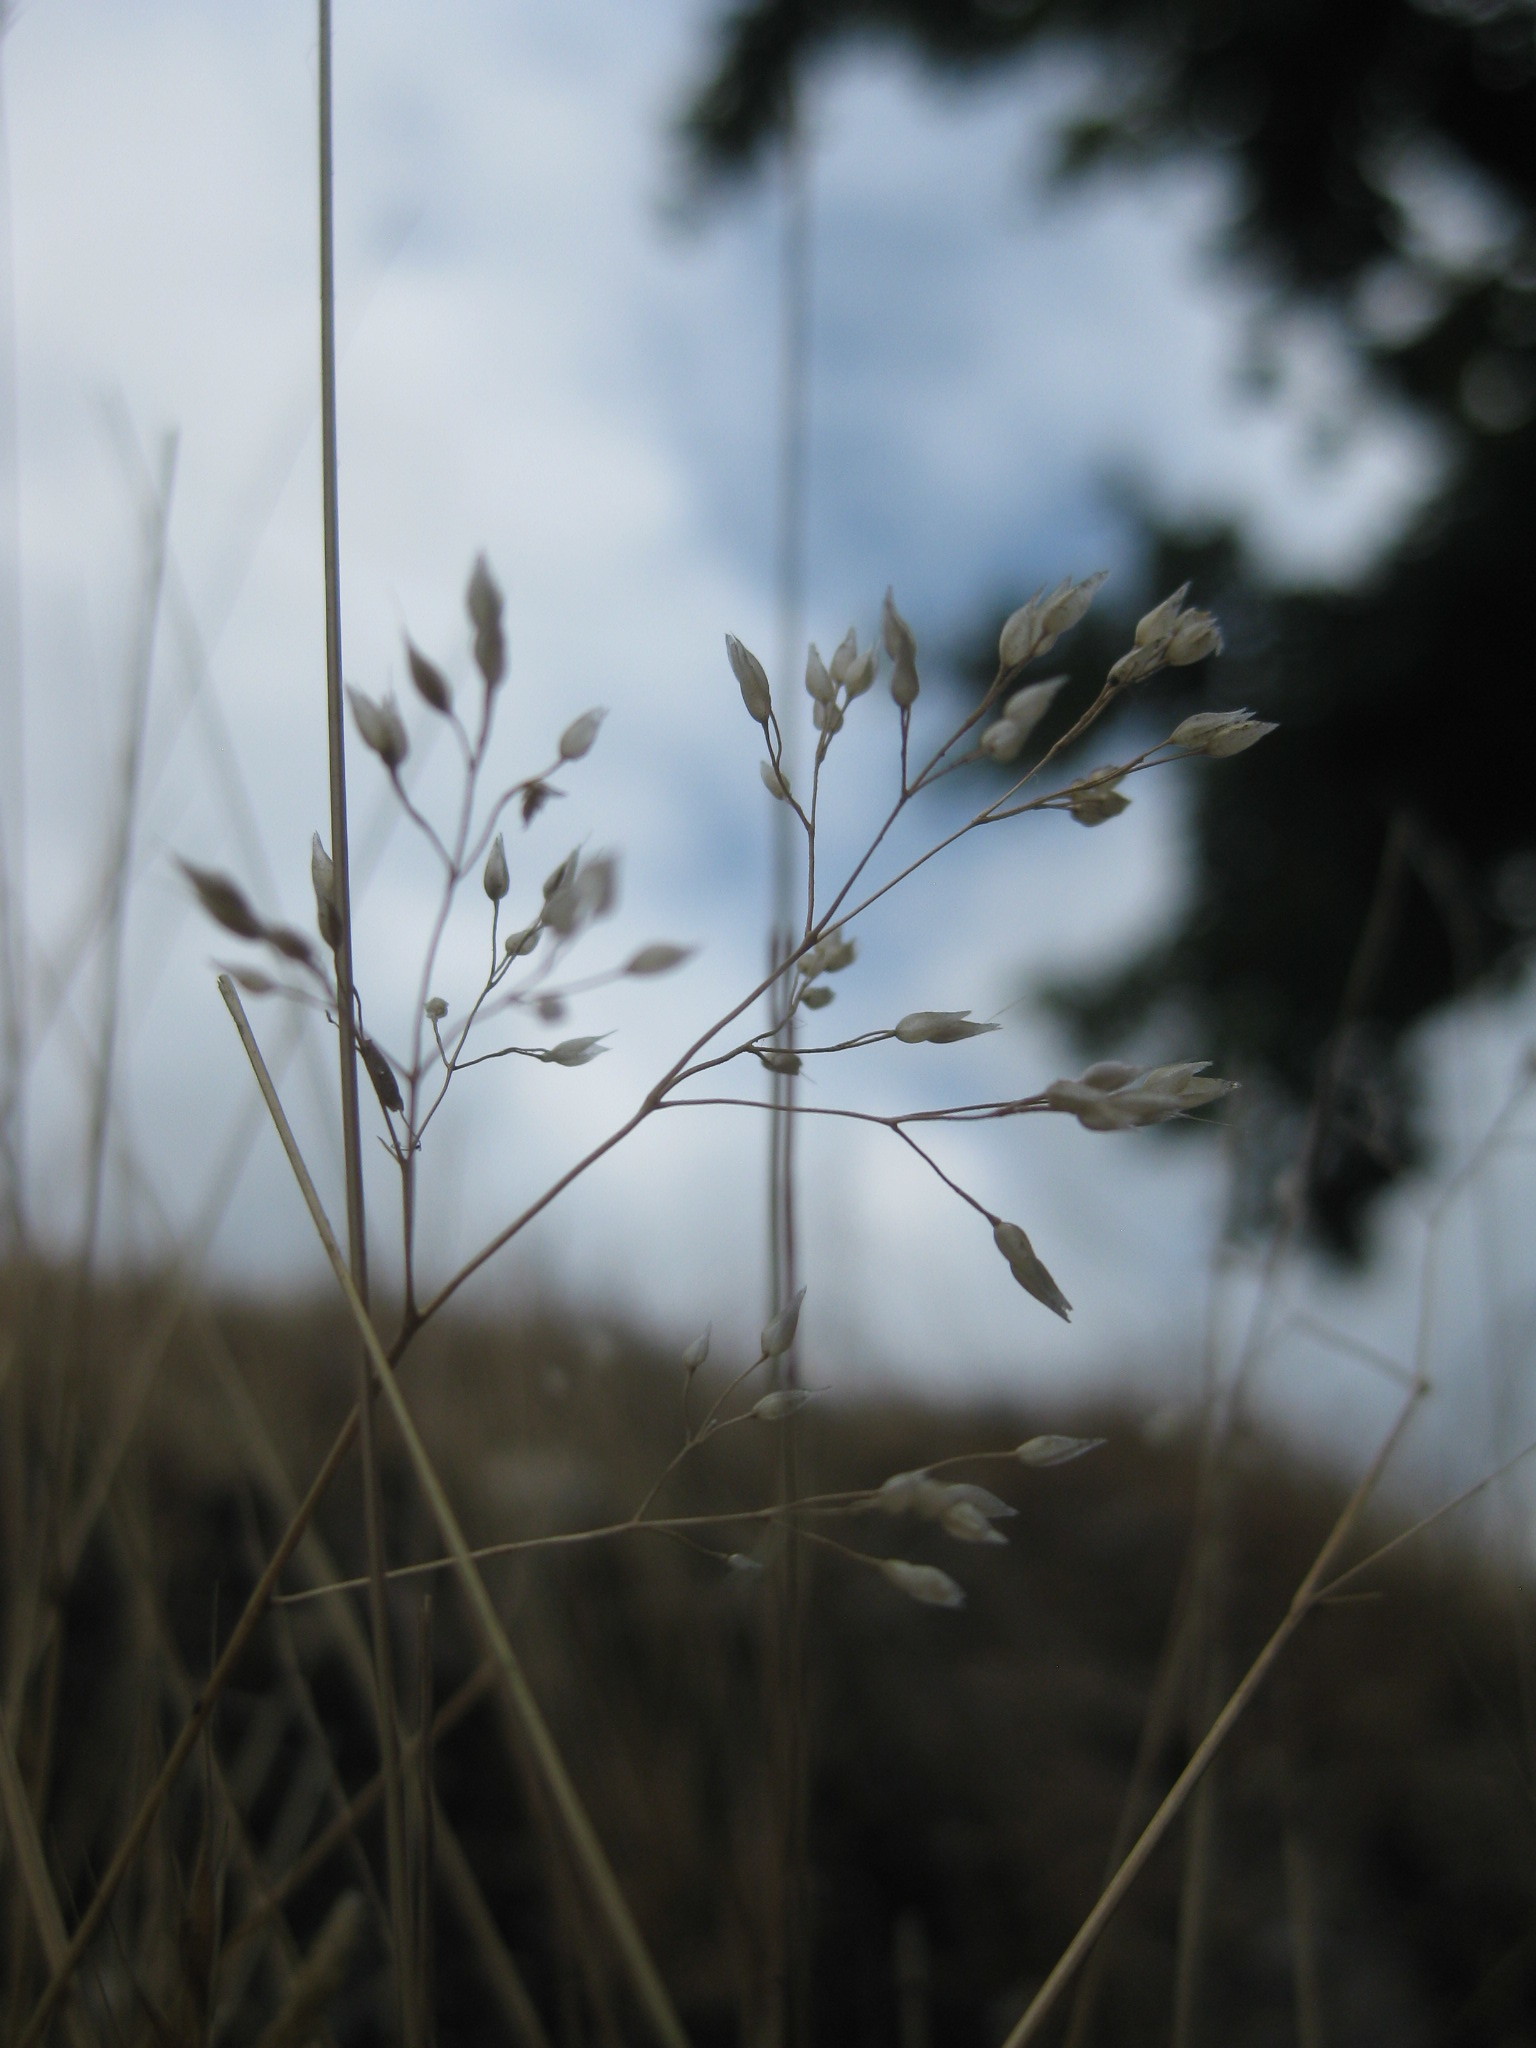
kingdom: Plantae
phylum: Tracheophyta
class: Liliopsida
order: Poales
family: Poaceae
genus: Aira
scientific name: Aira caryophyllea
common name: Silver hairgrass
